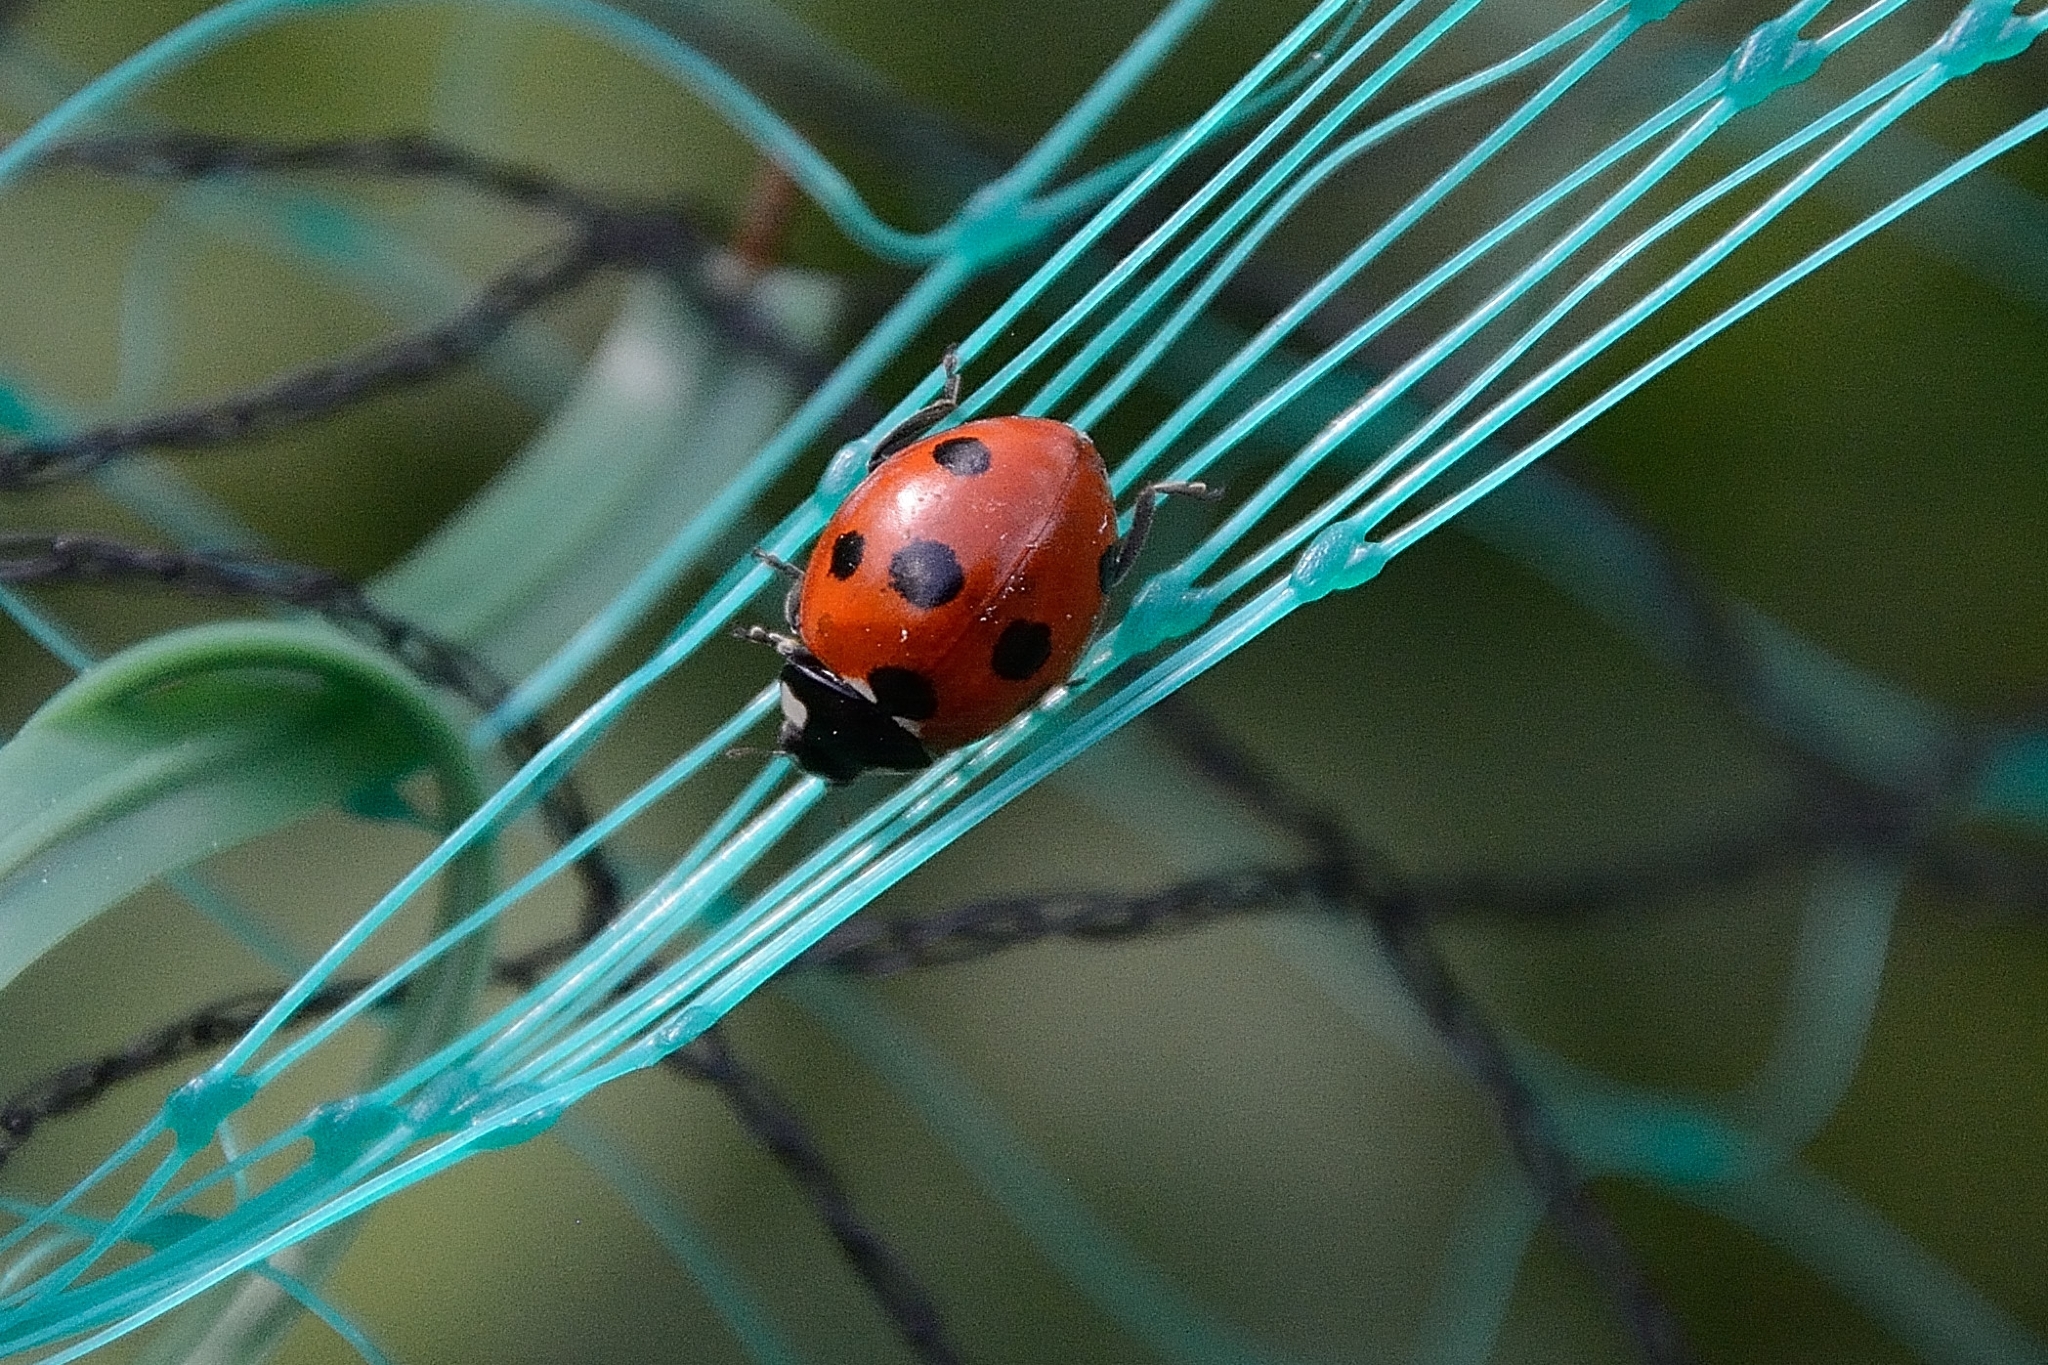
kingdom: Animalia
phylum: Arthropoda
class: Insecta
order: Coleoptera
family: Coccinellidae
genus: Coccinella
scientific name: Coccinella septempunctata
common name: Sevenspotted lady beetle
